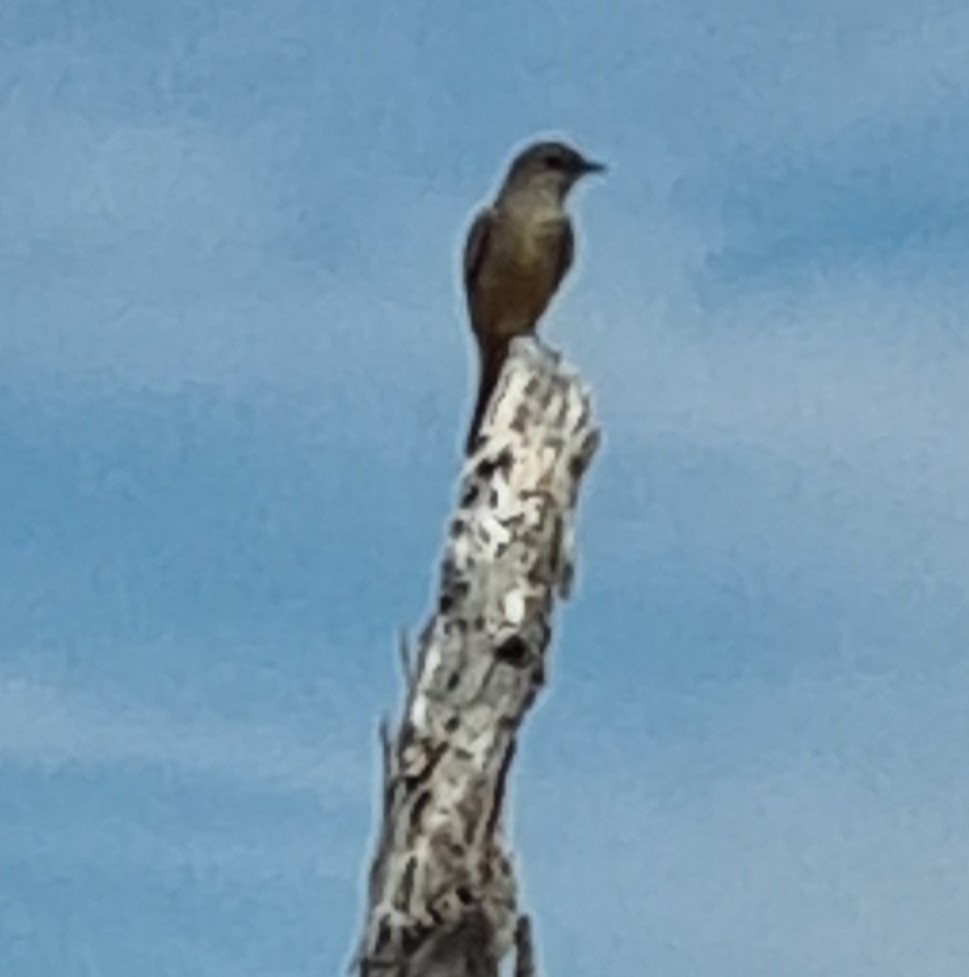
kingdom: Animalia
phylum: Chordata
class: Aves
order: Passeriformes
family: Tyrannidae
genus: Sayornis
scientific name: Sayornis saya
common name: Say's phoebe
